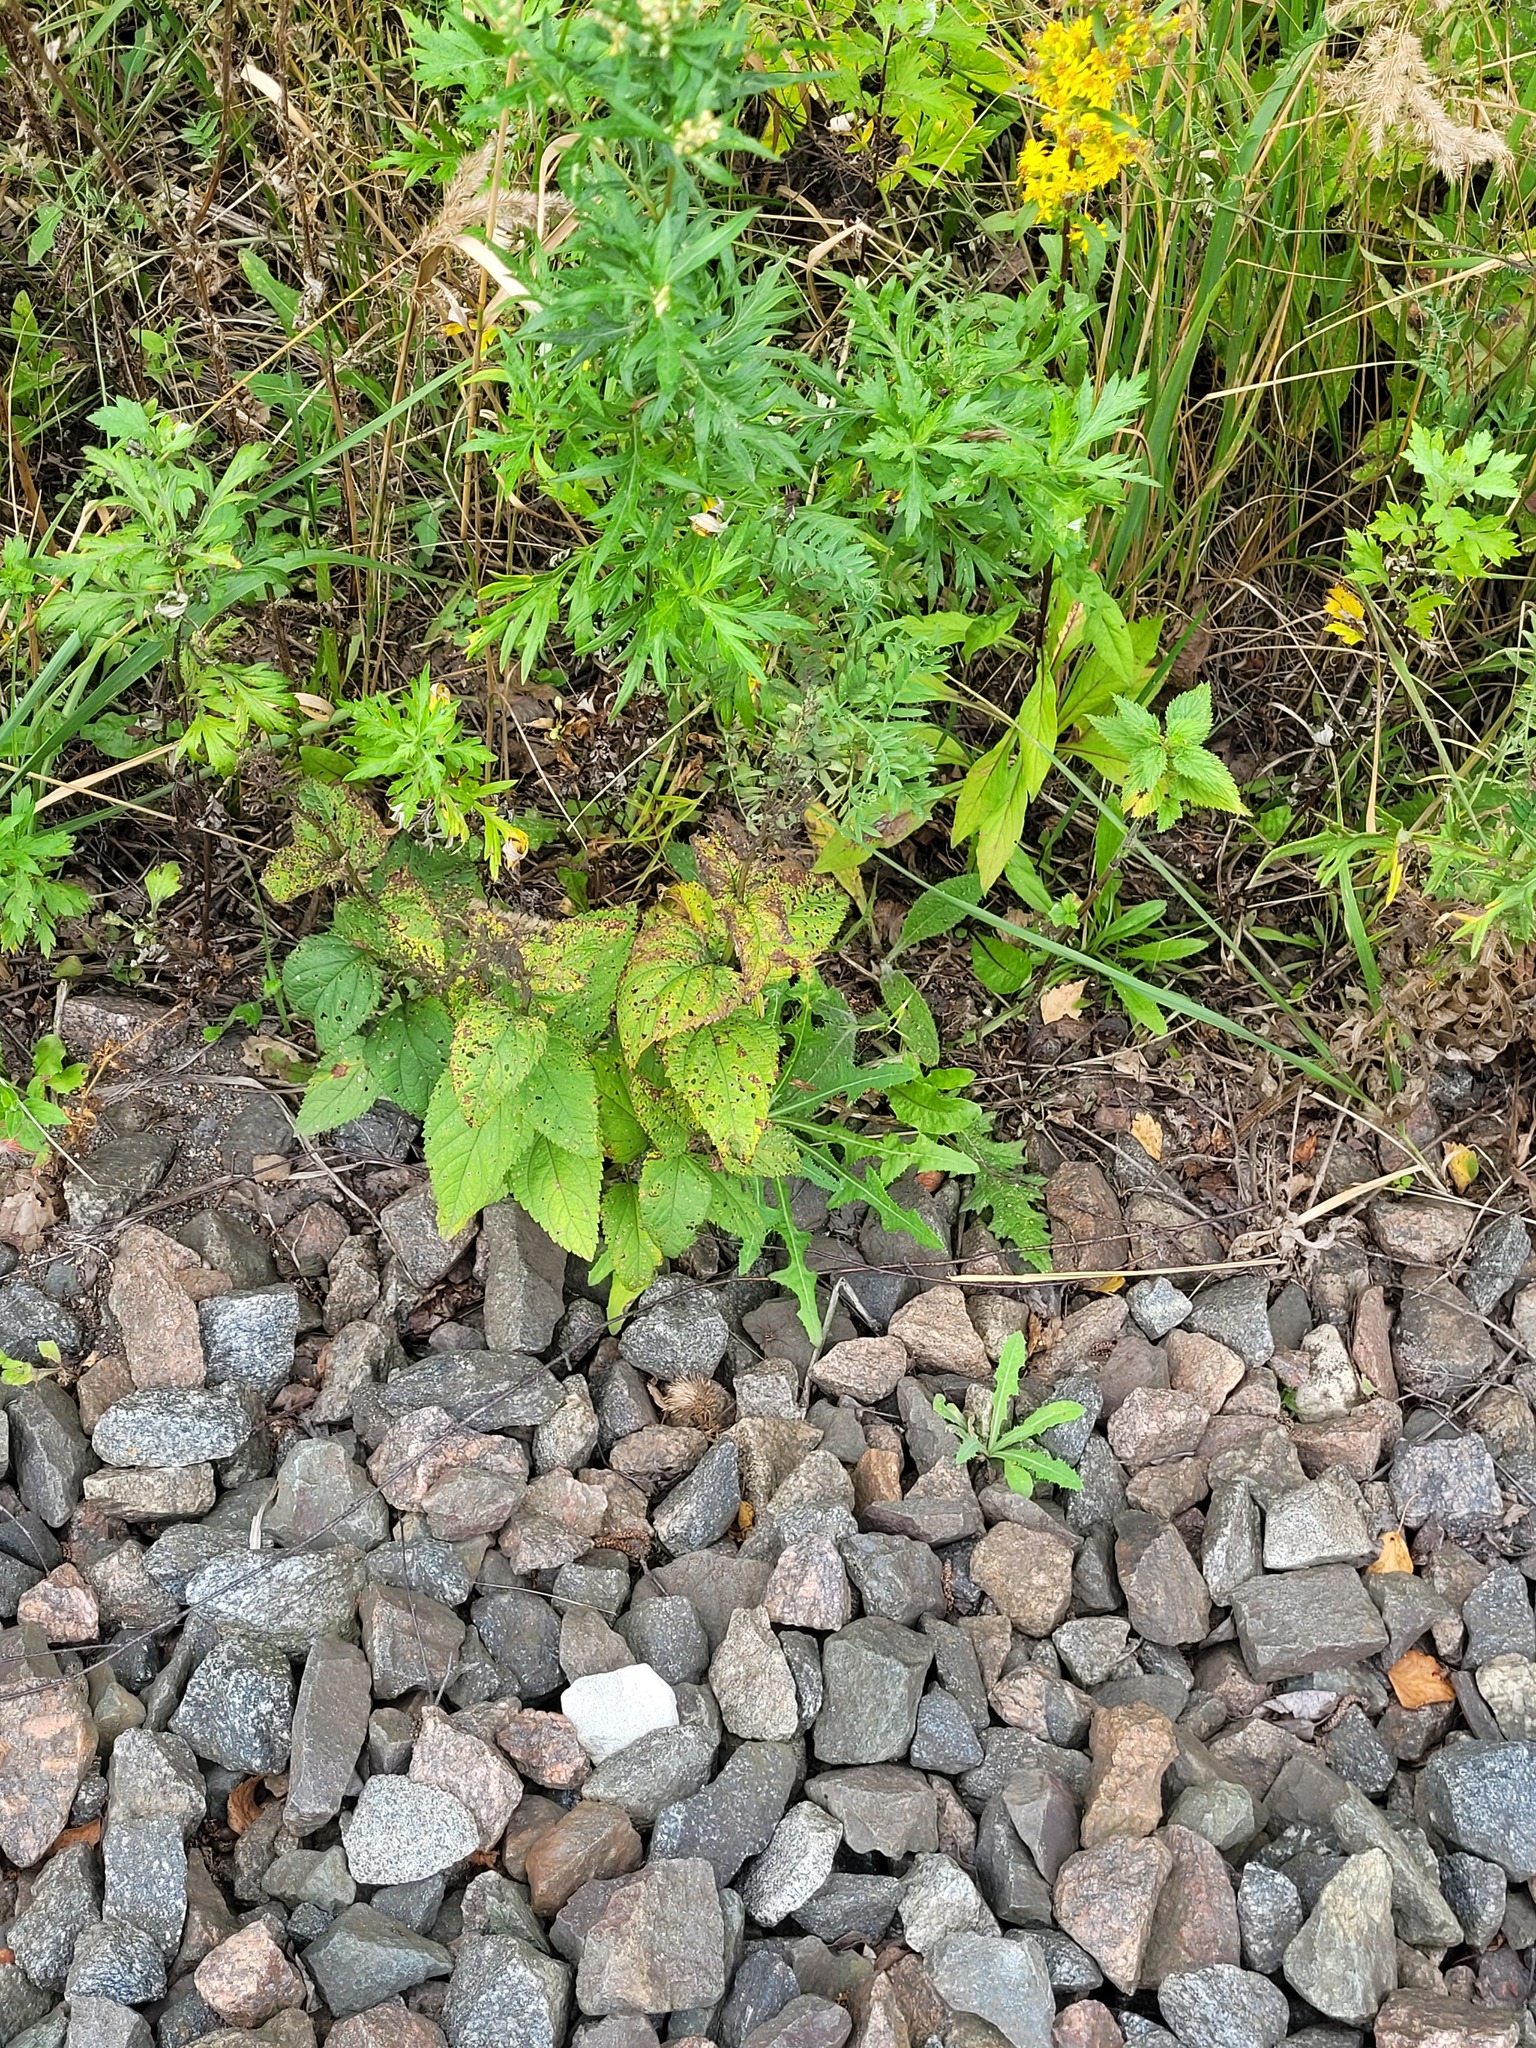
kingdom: Plantae
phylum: Tracheophyta
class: Magnoliopsida
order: Lamiales
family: Scrophulariaceae
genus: Scrophularia
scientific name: Scrophularia nodosa
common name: Common figwort
